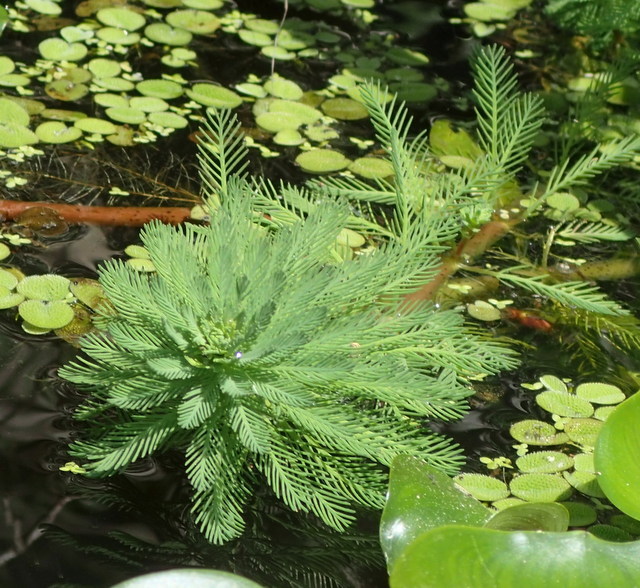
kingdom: Plantae
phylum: Tracheophyta
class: Magnoliopsida
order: Saxifragales
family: Haloragaceae
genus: Myriophyllum
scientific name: Myriophyllum aquaticum
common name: Parrot's feather
